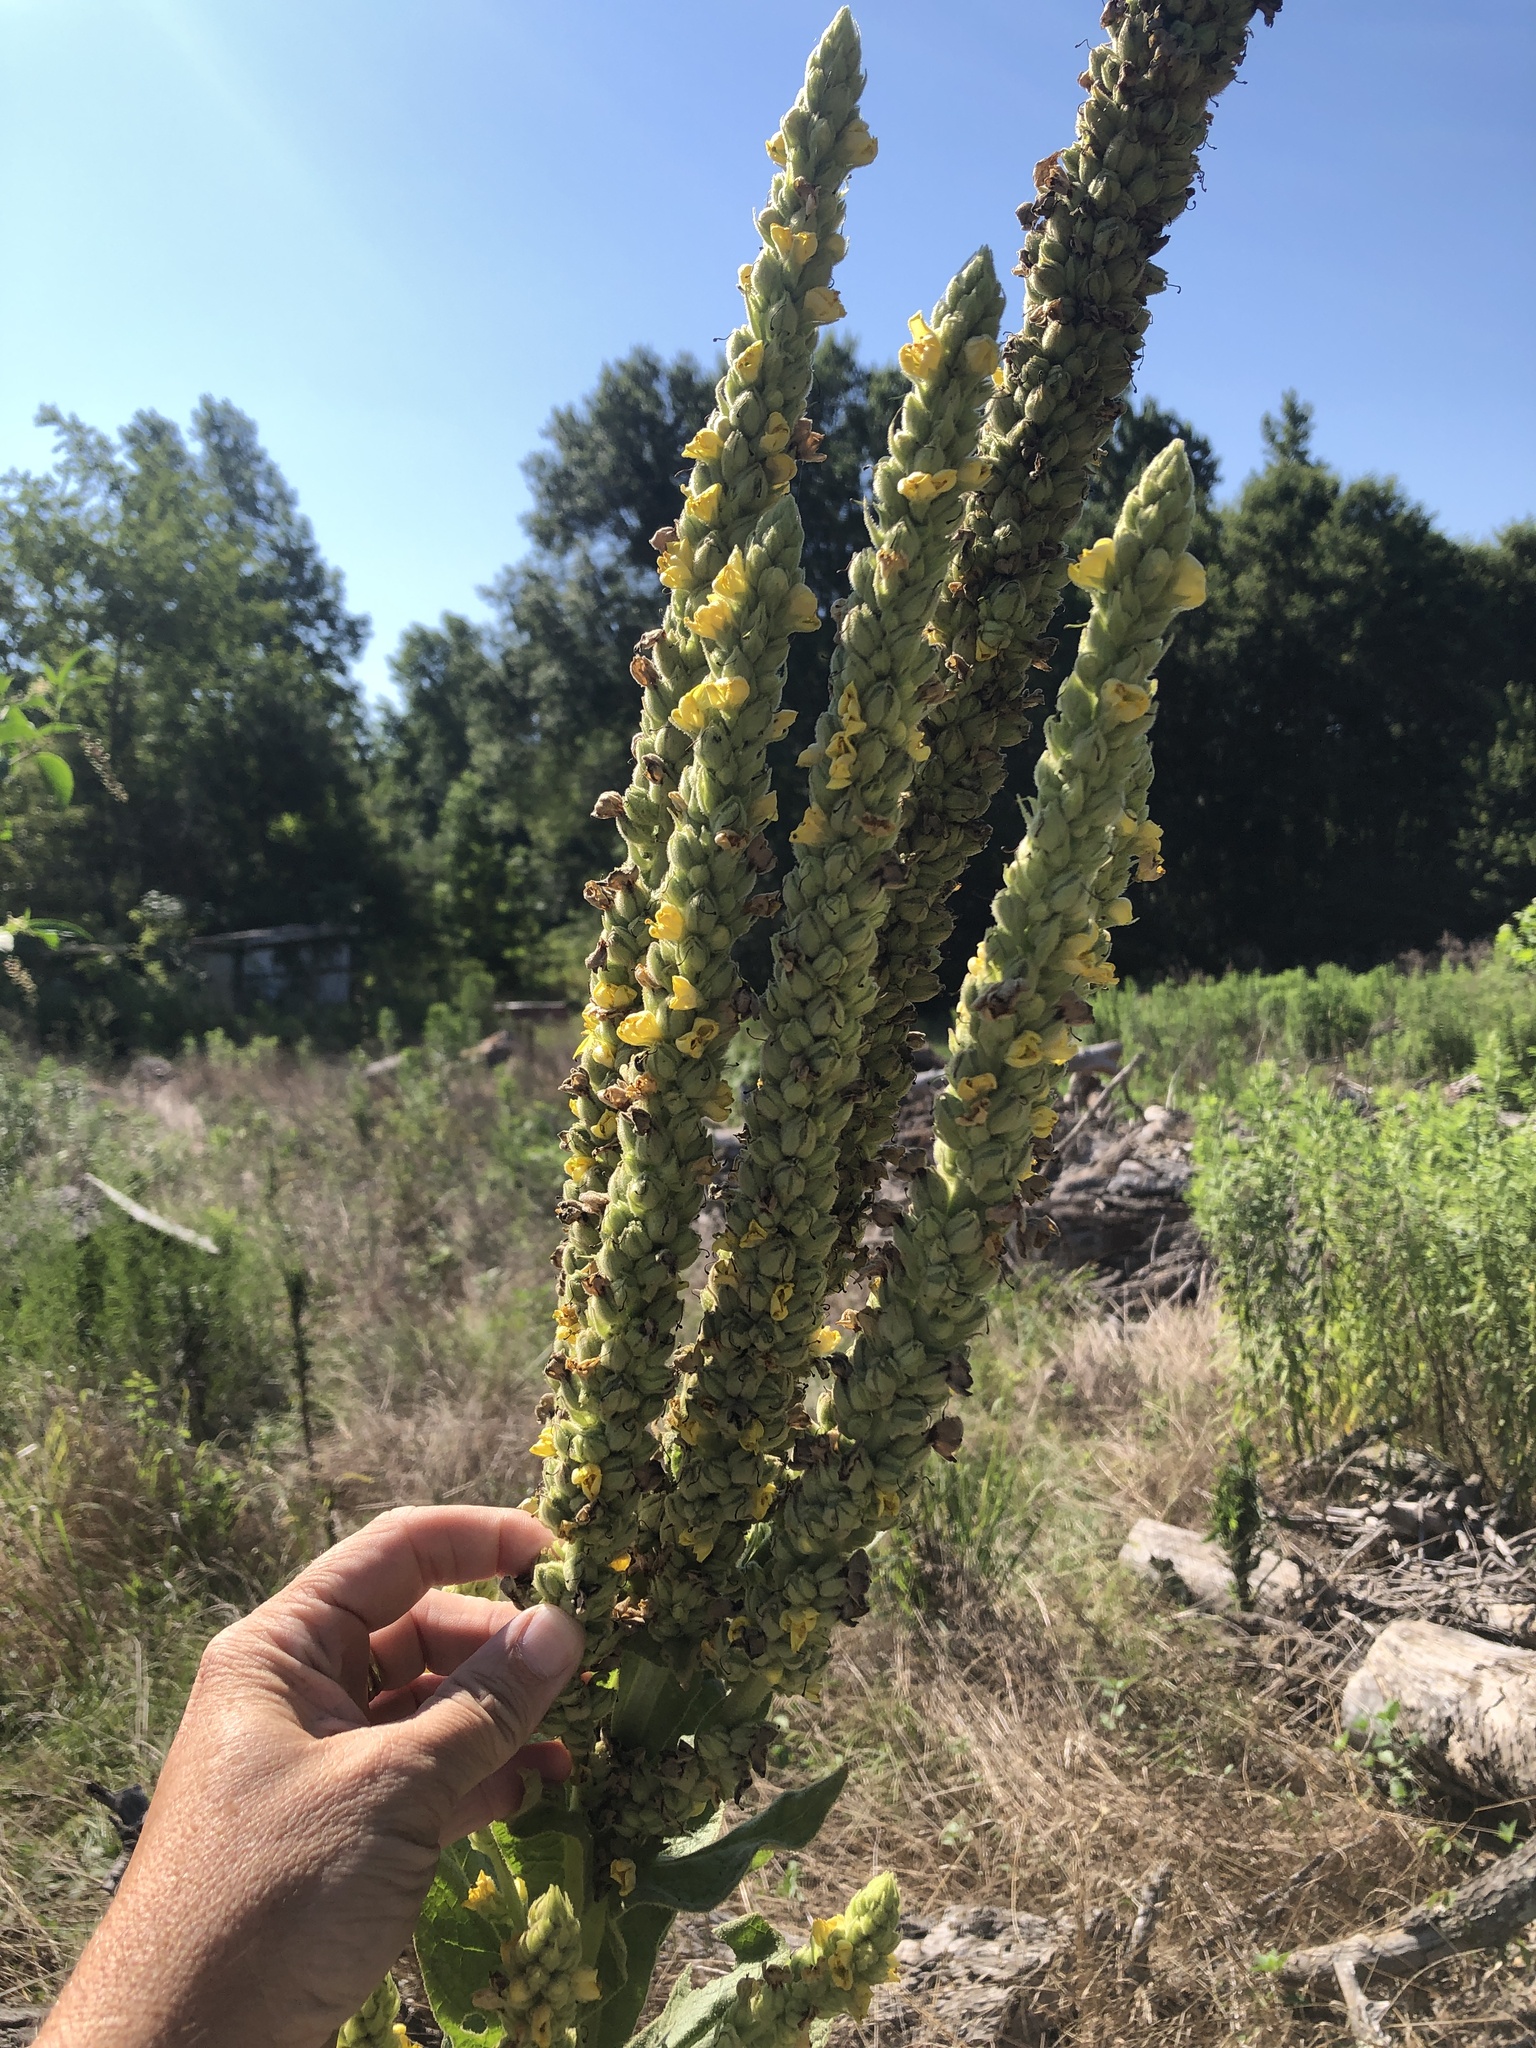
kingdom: Plantae
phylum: Tracheophyta
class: Magnoliopsida
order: Lamiales
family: Scrophulariaceae
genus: Verbascum
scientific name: Verbascum thapsus
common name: Common mullein
